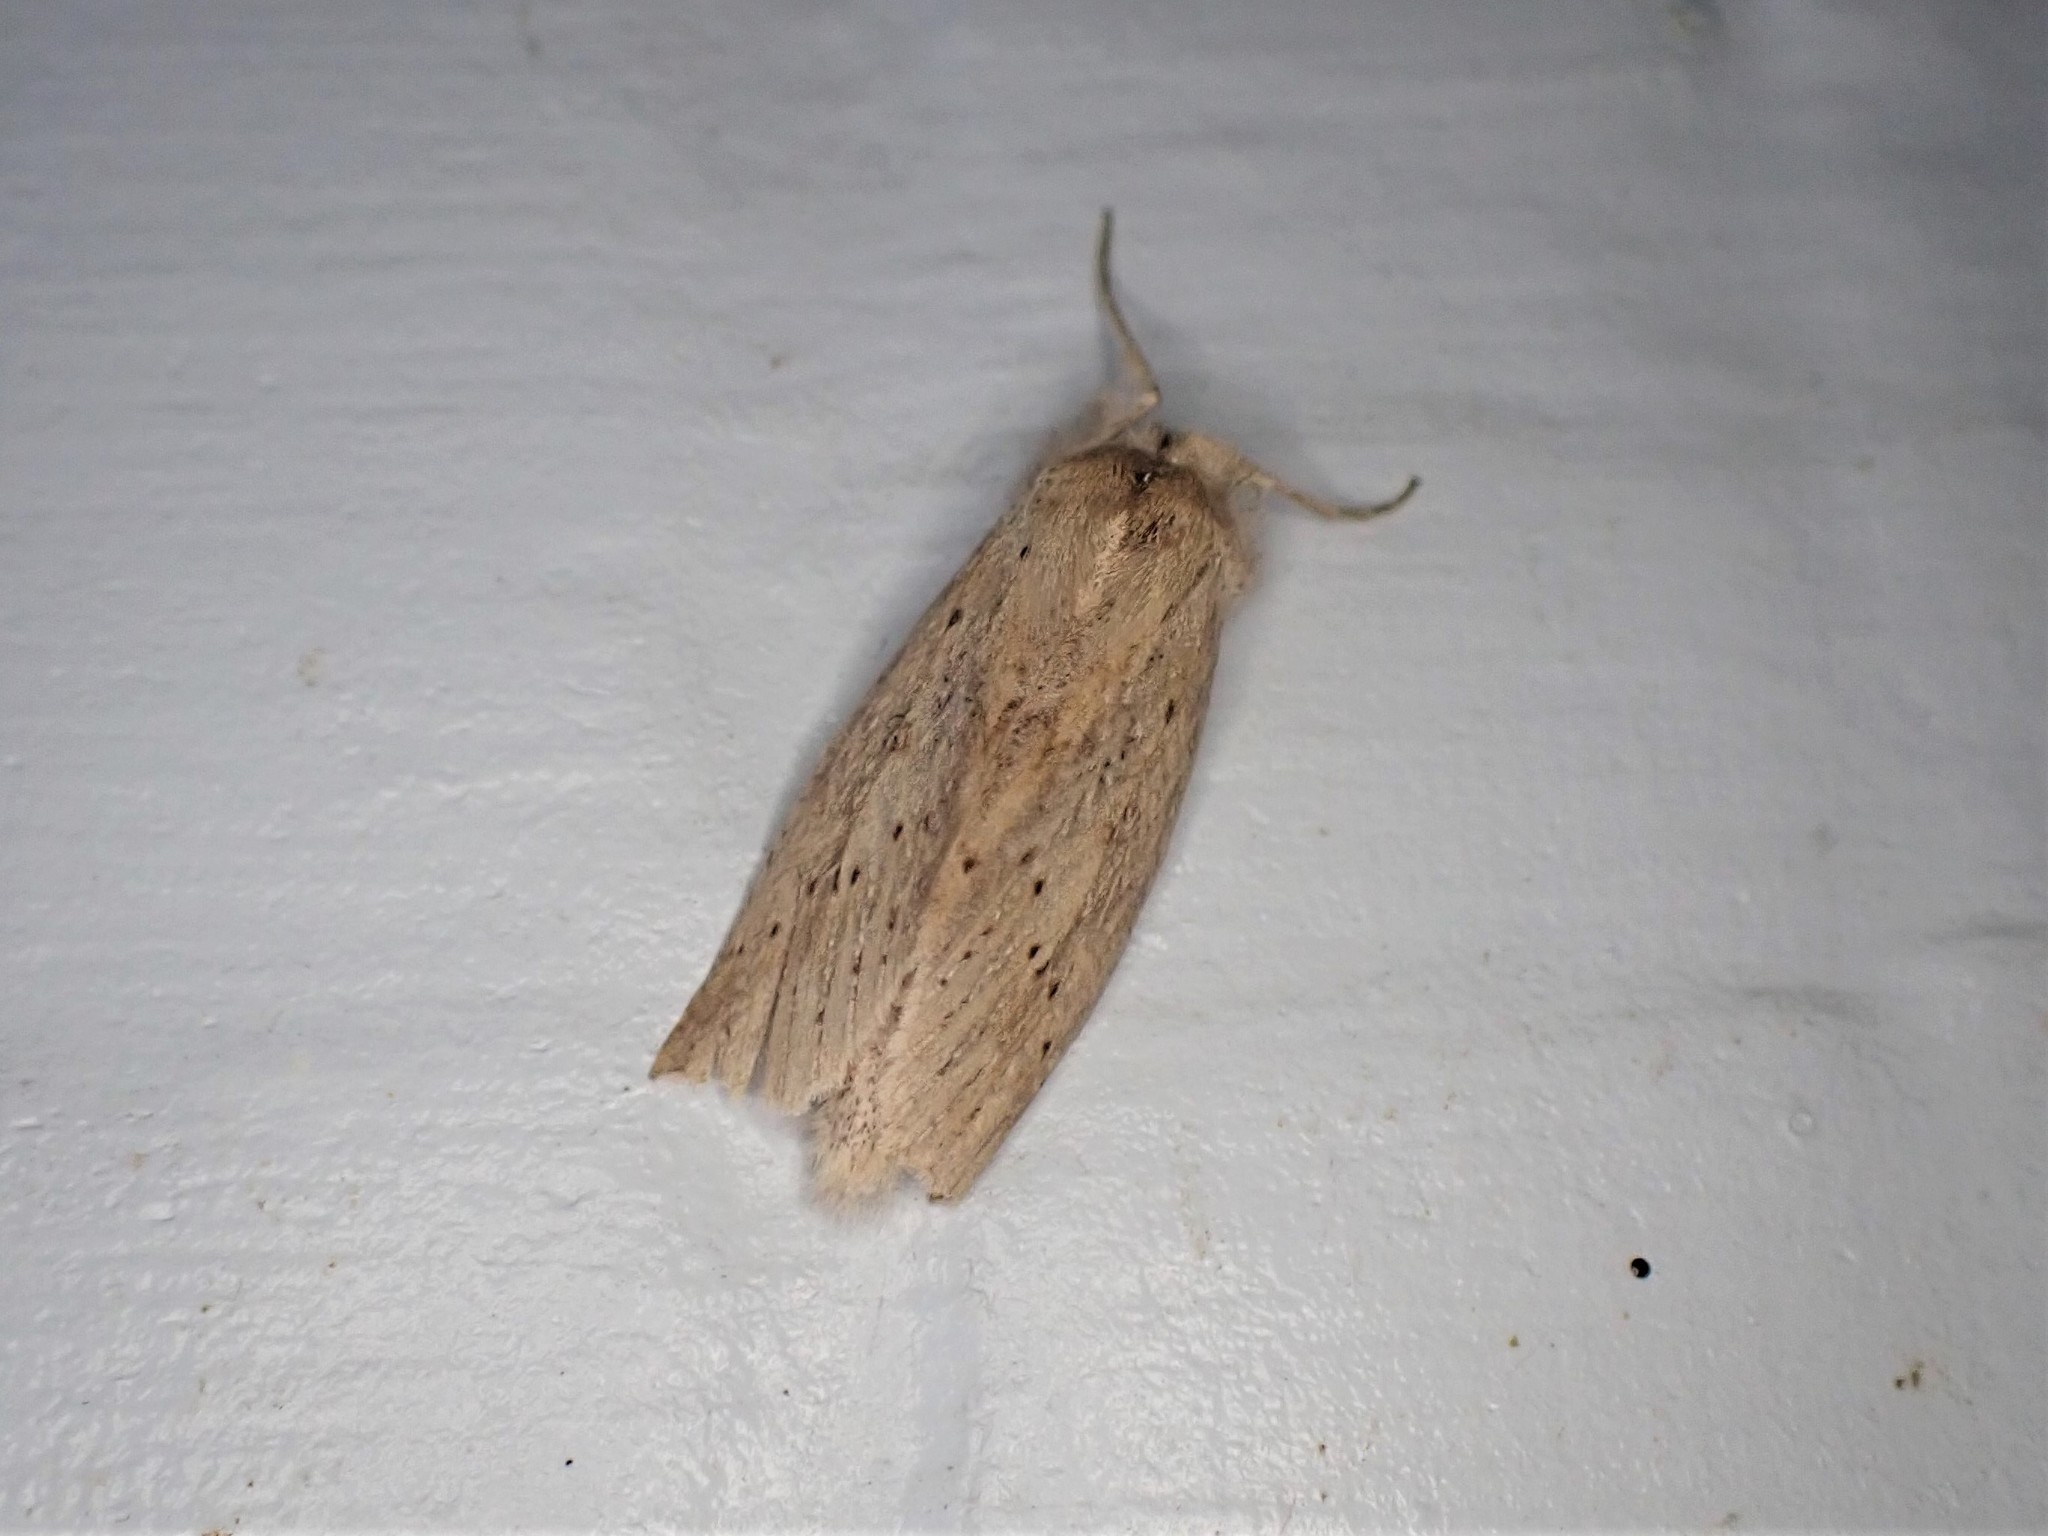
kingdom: Animalia
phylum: Arthropoda
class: Insecta
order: Lepidoptera
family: Geometridae
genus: Declana
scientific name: Declana leptomera
